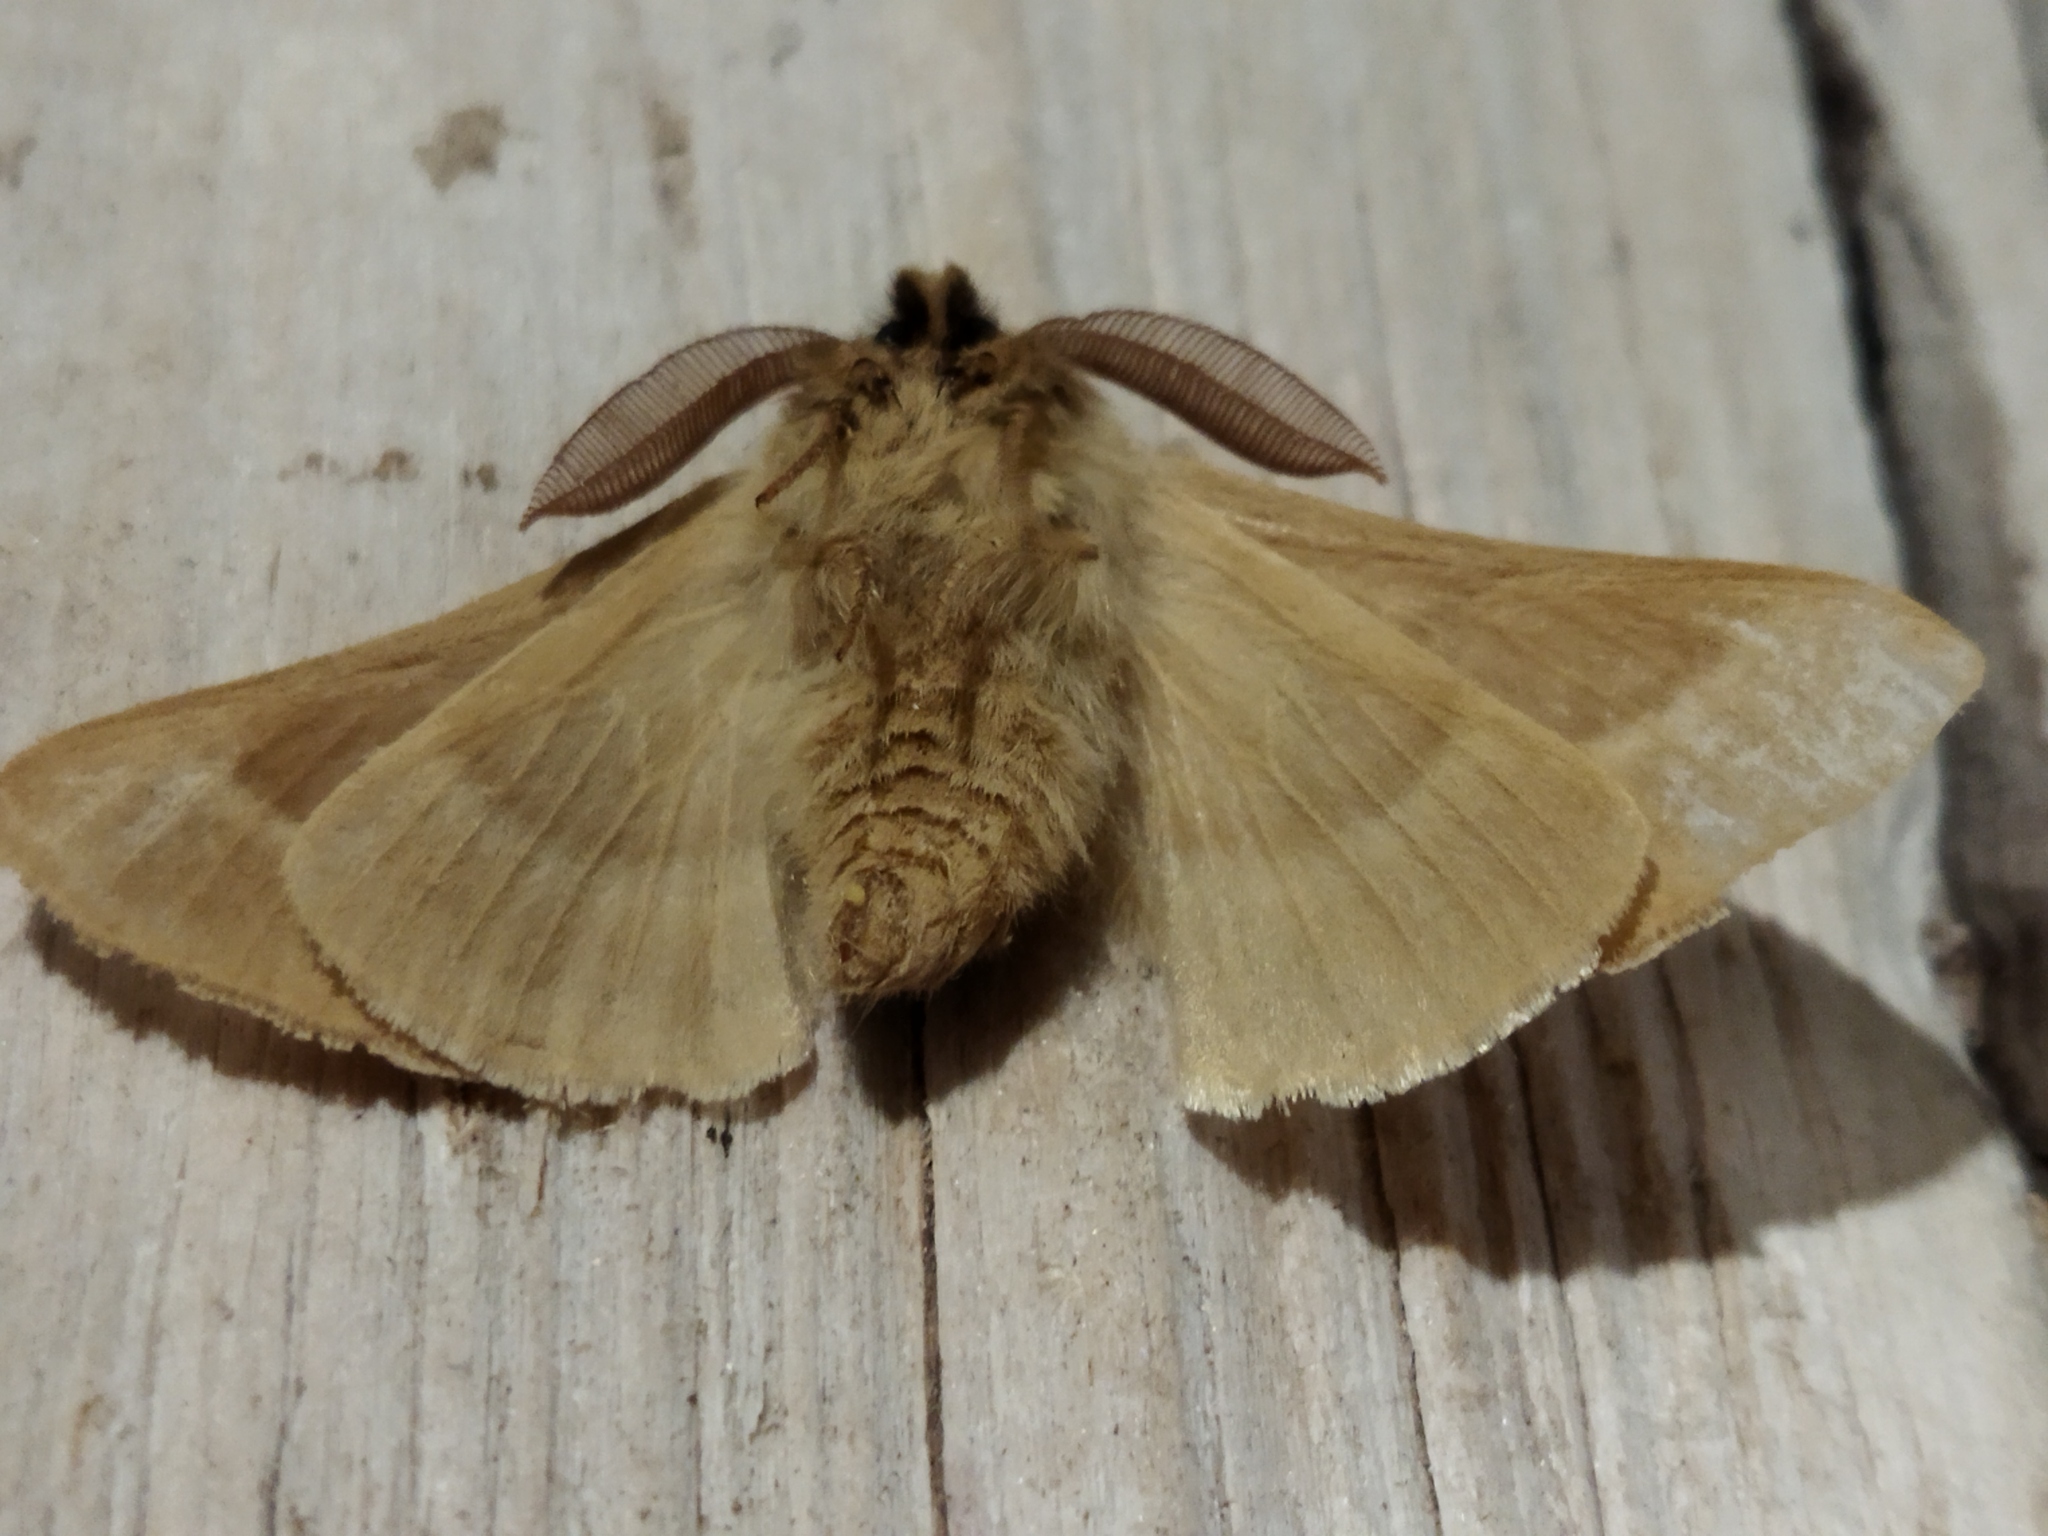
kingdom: Animalia
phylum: Arthropoda
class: Insecta
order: Lepidoptera
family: Brahmaeidae
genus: Lemonia
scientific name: Lemonia balcanica
